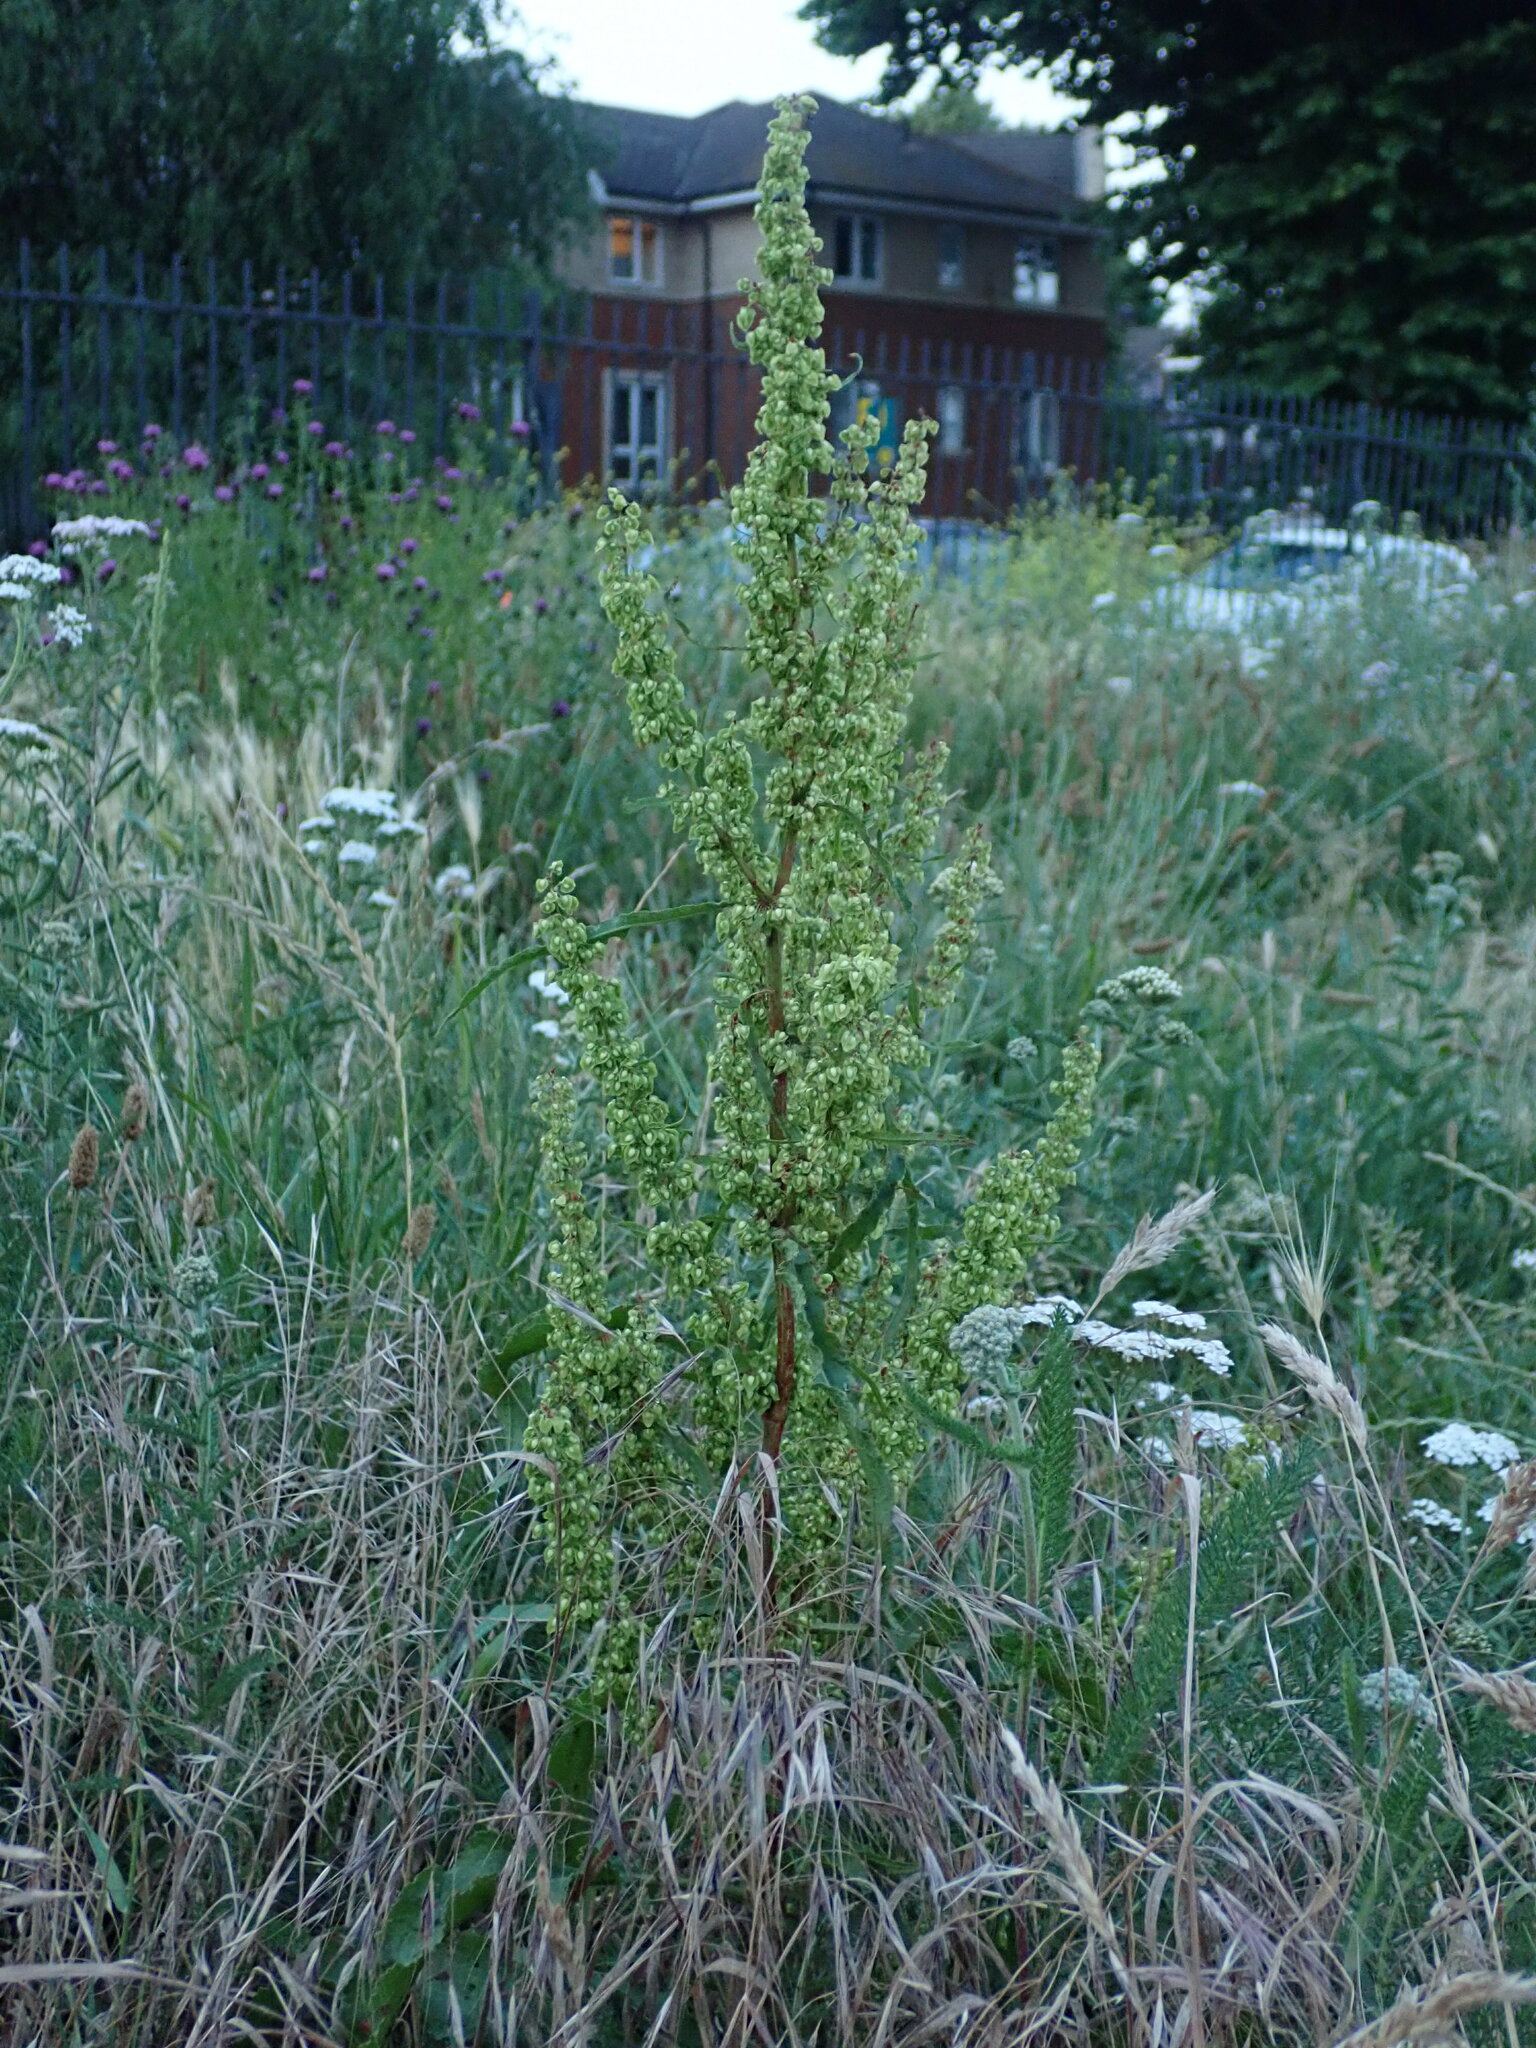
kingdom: Plantae
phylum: Tracheophyta
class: Magnoliopsida
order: Caryophyllales
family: Polygonaceae
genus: Rumex
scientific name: Rumex crispus
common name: Curled dock
